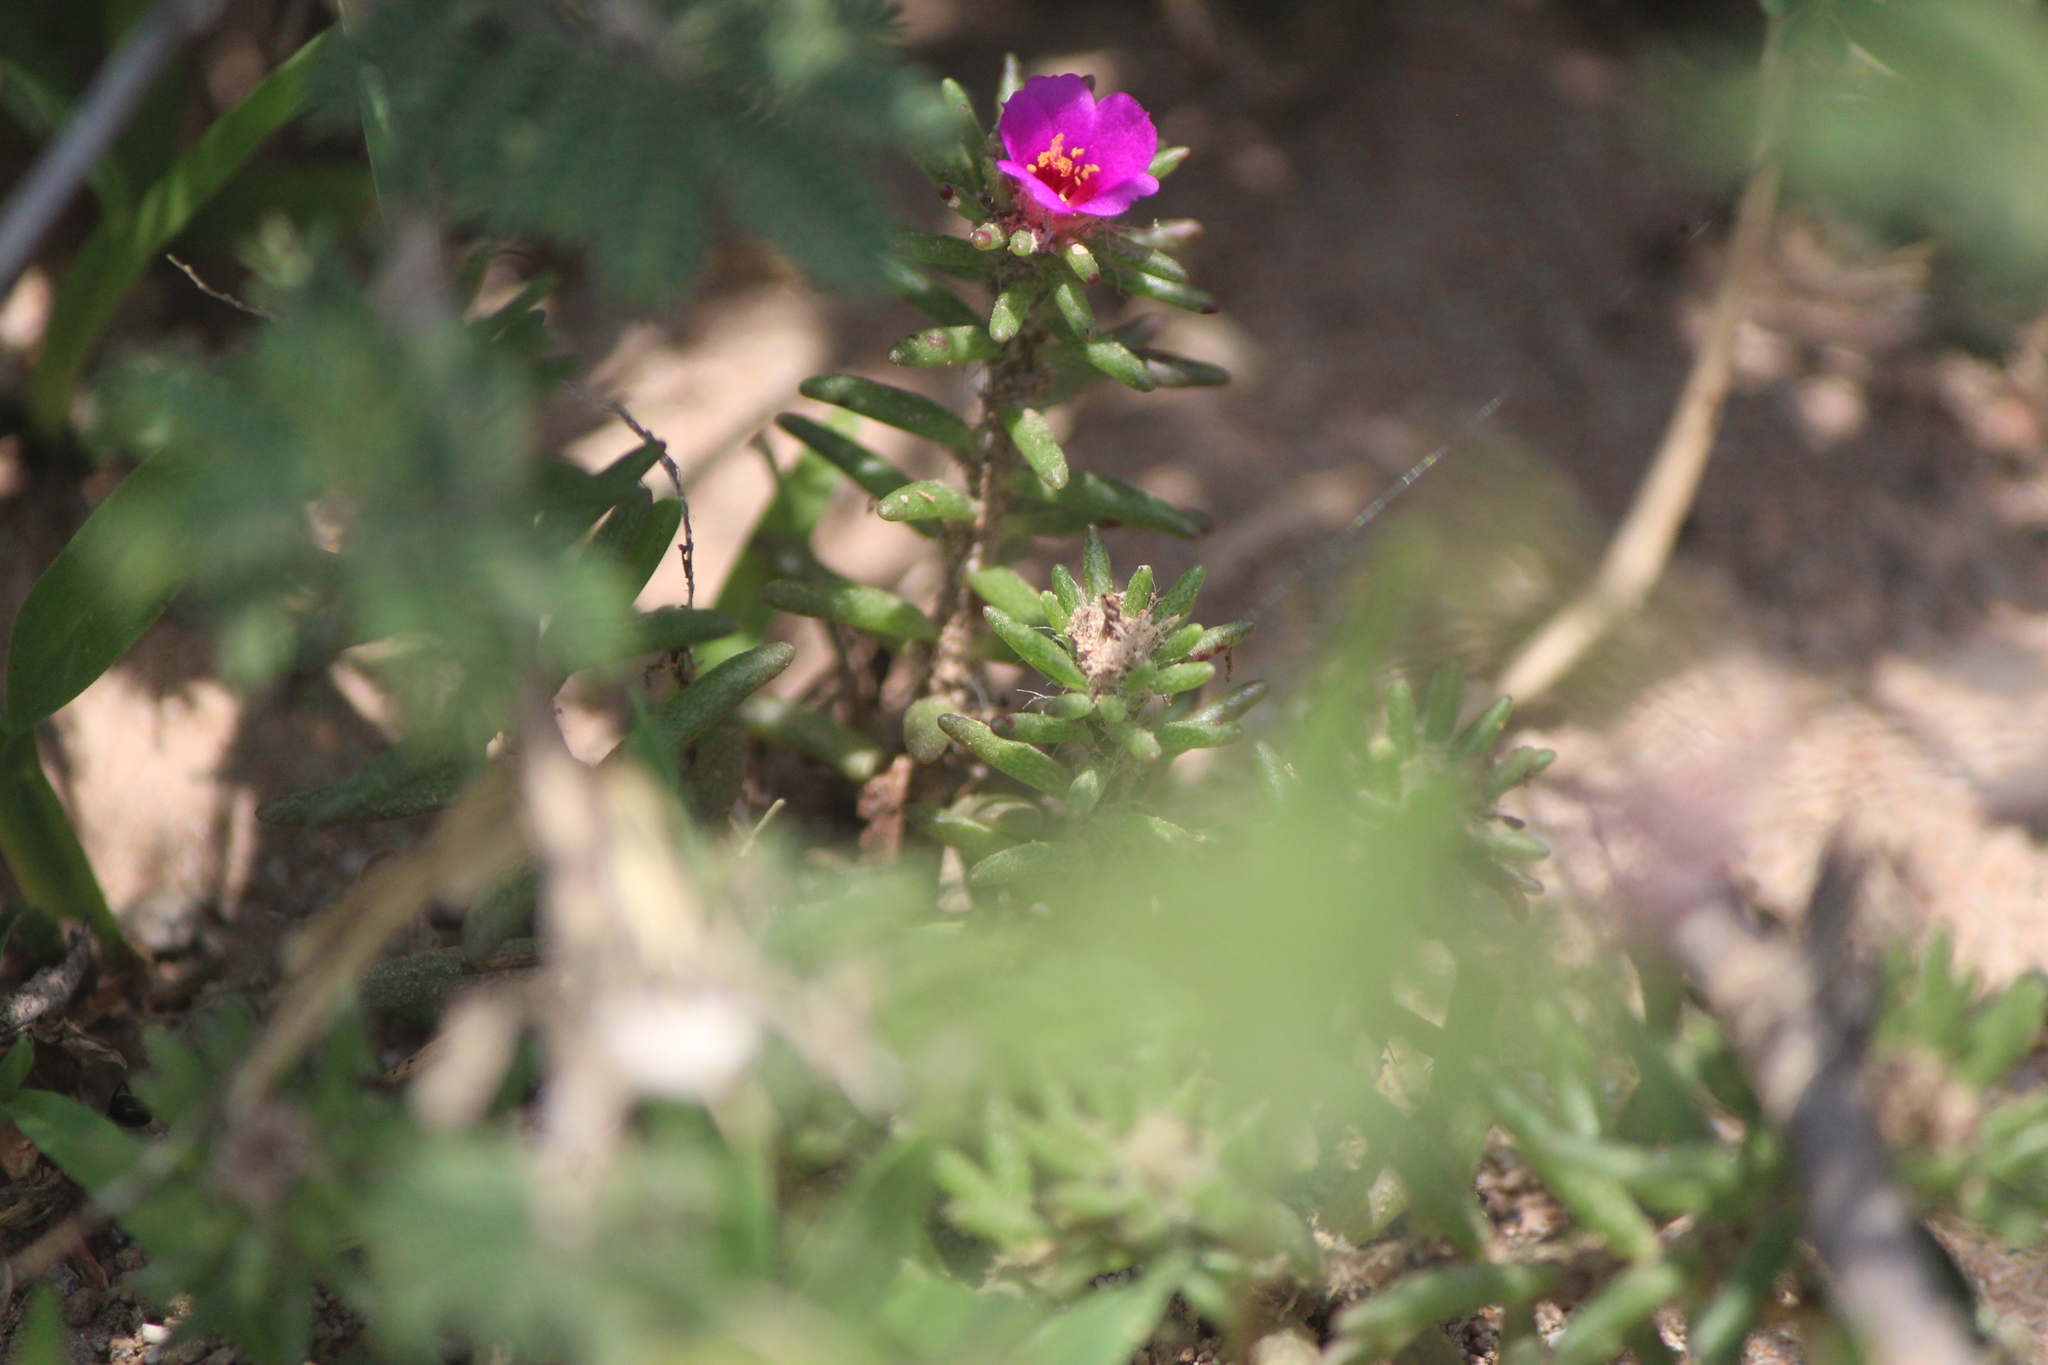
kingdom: Plantae
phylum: Tracheophyta
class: Magnoliopsida
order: Caryophyllales
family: Portulacaceae
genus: Portulaca
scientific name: Portulaca pilosa
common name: Kiss me quick
